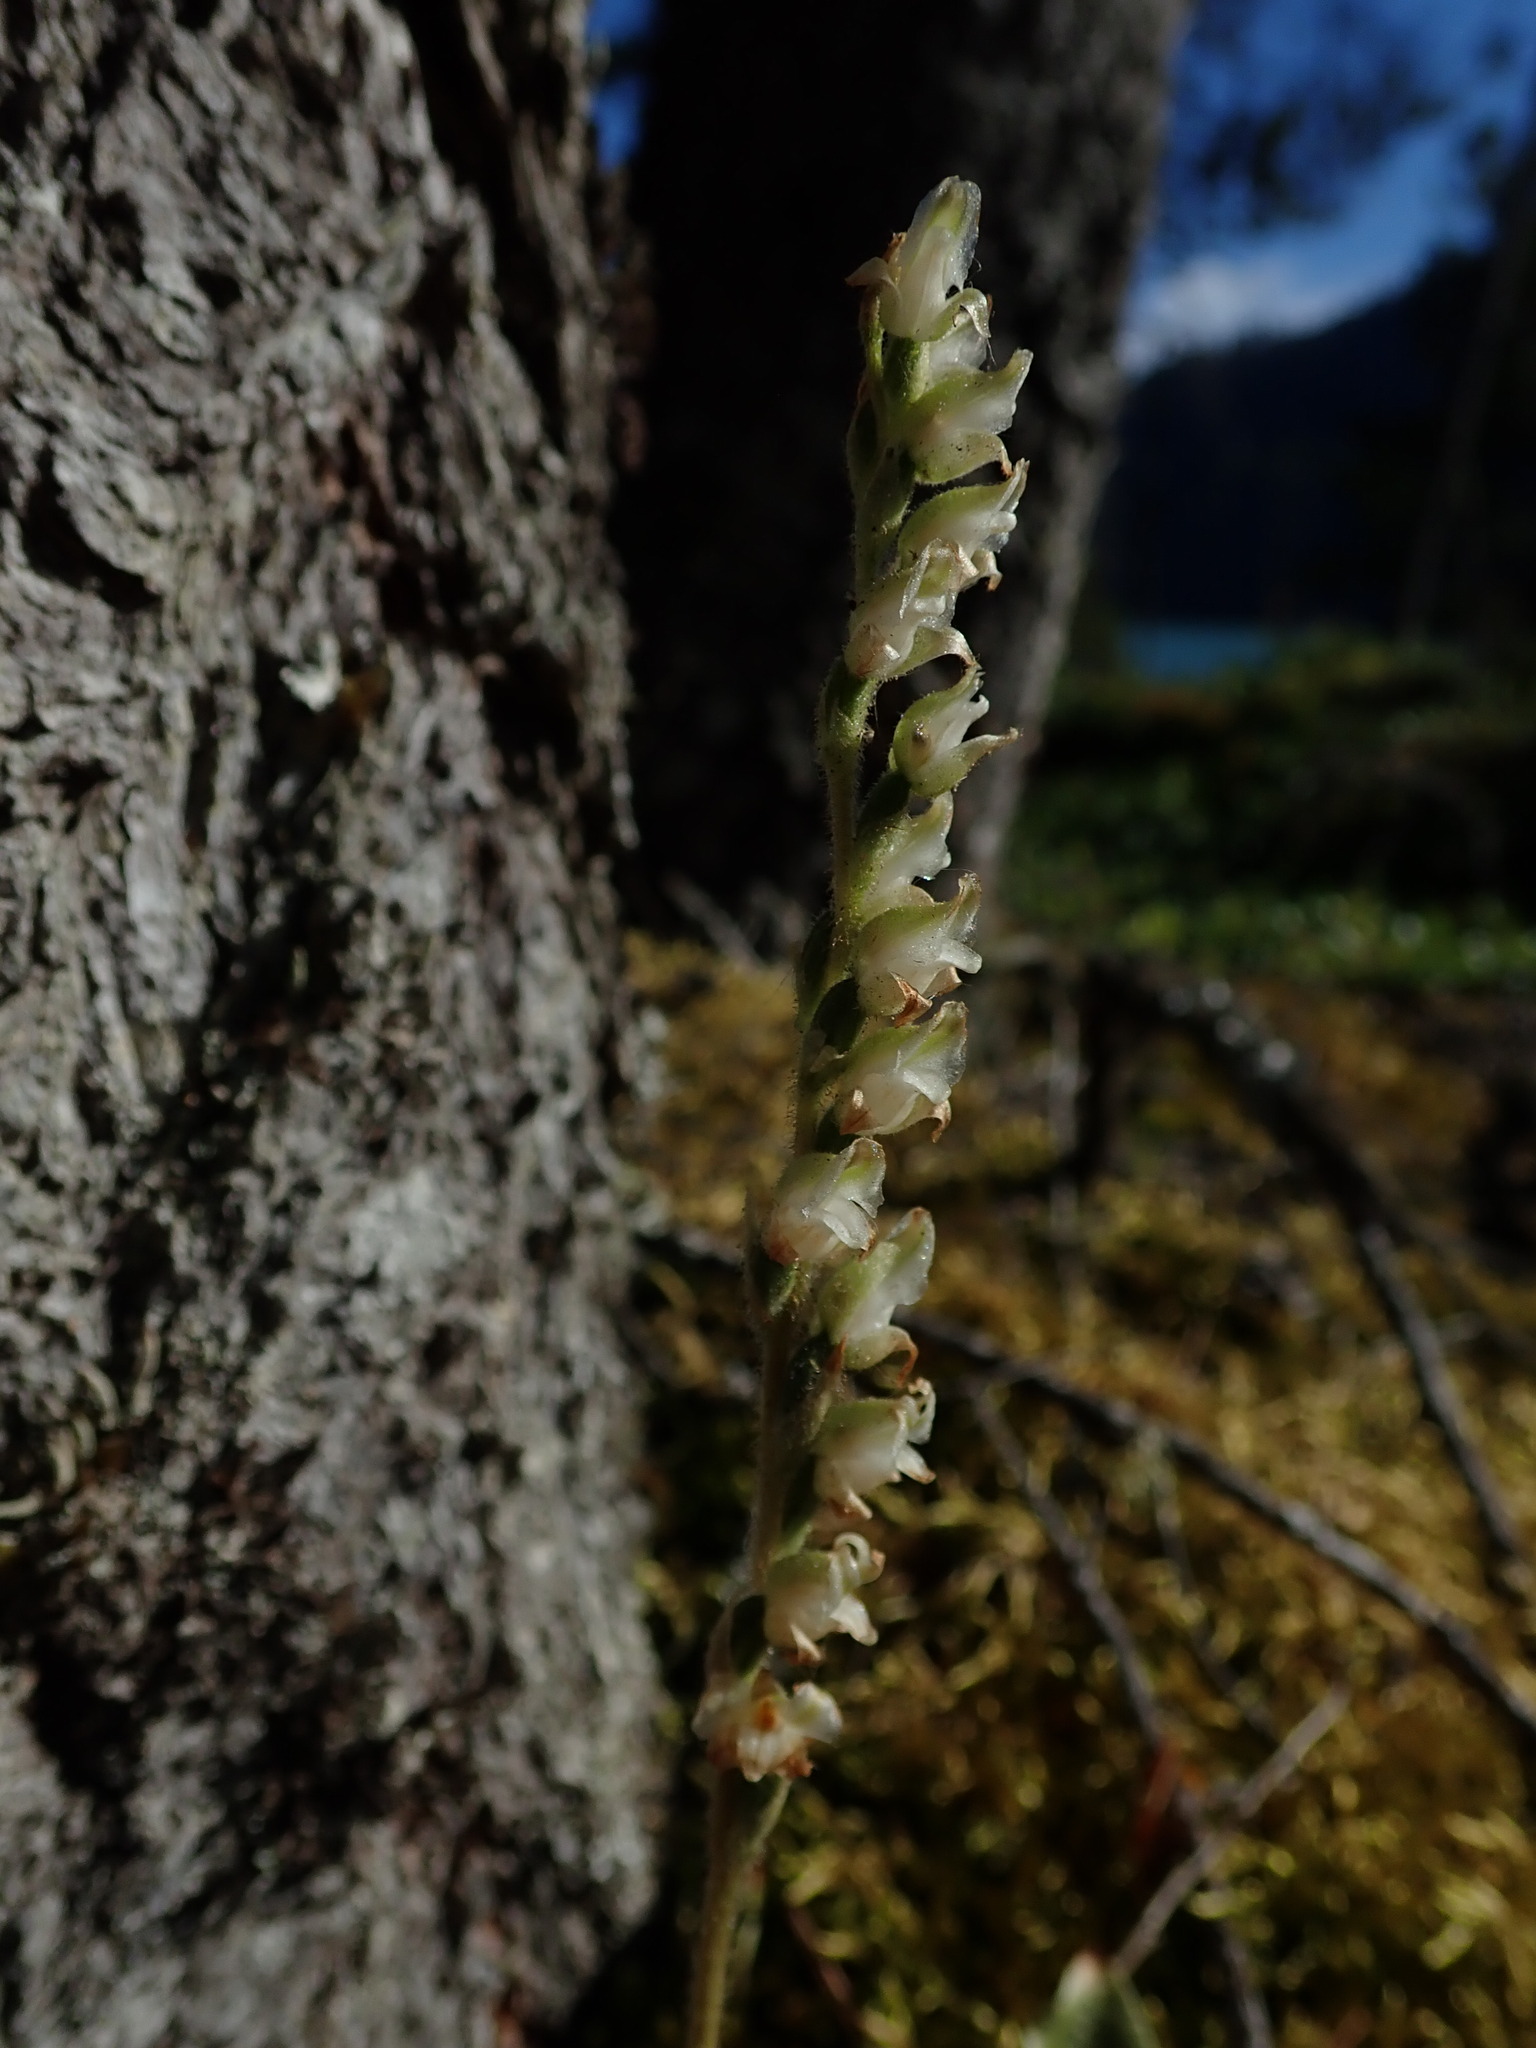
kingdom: Plantae
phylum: Tracheophyta
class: Liliopsida
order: Asparagales
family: Orchidaceae
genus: Goodyera
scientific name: Goodyera oblongifolia
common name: Giant rattlesnake-plantain
